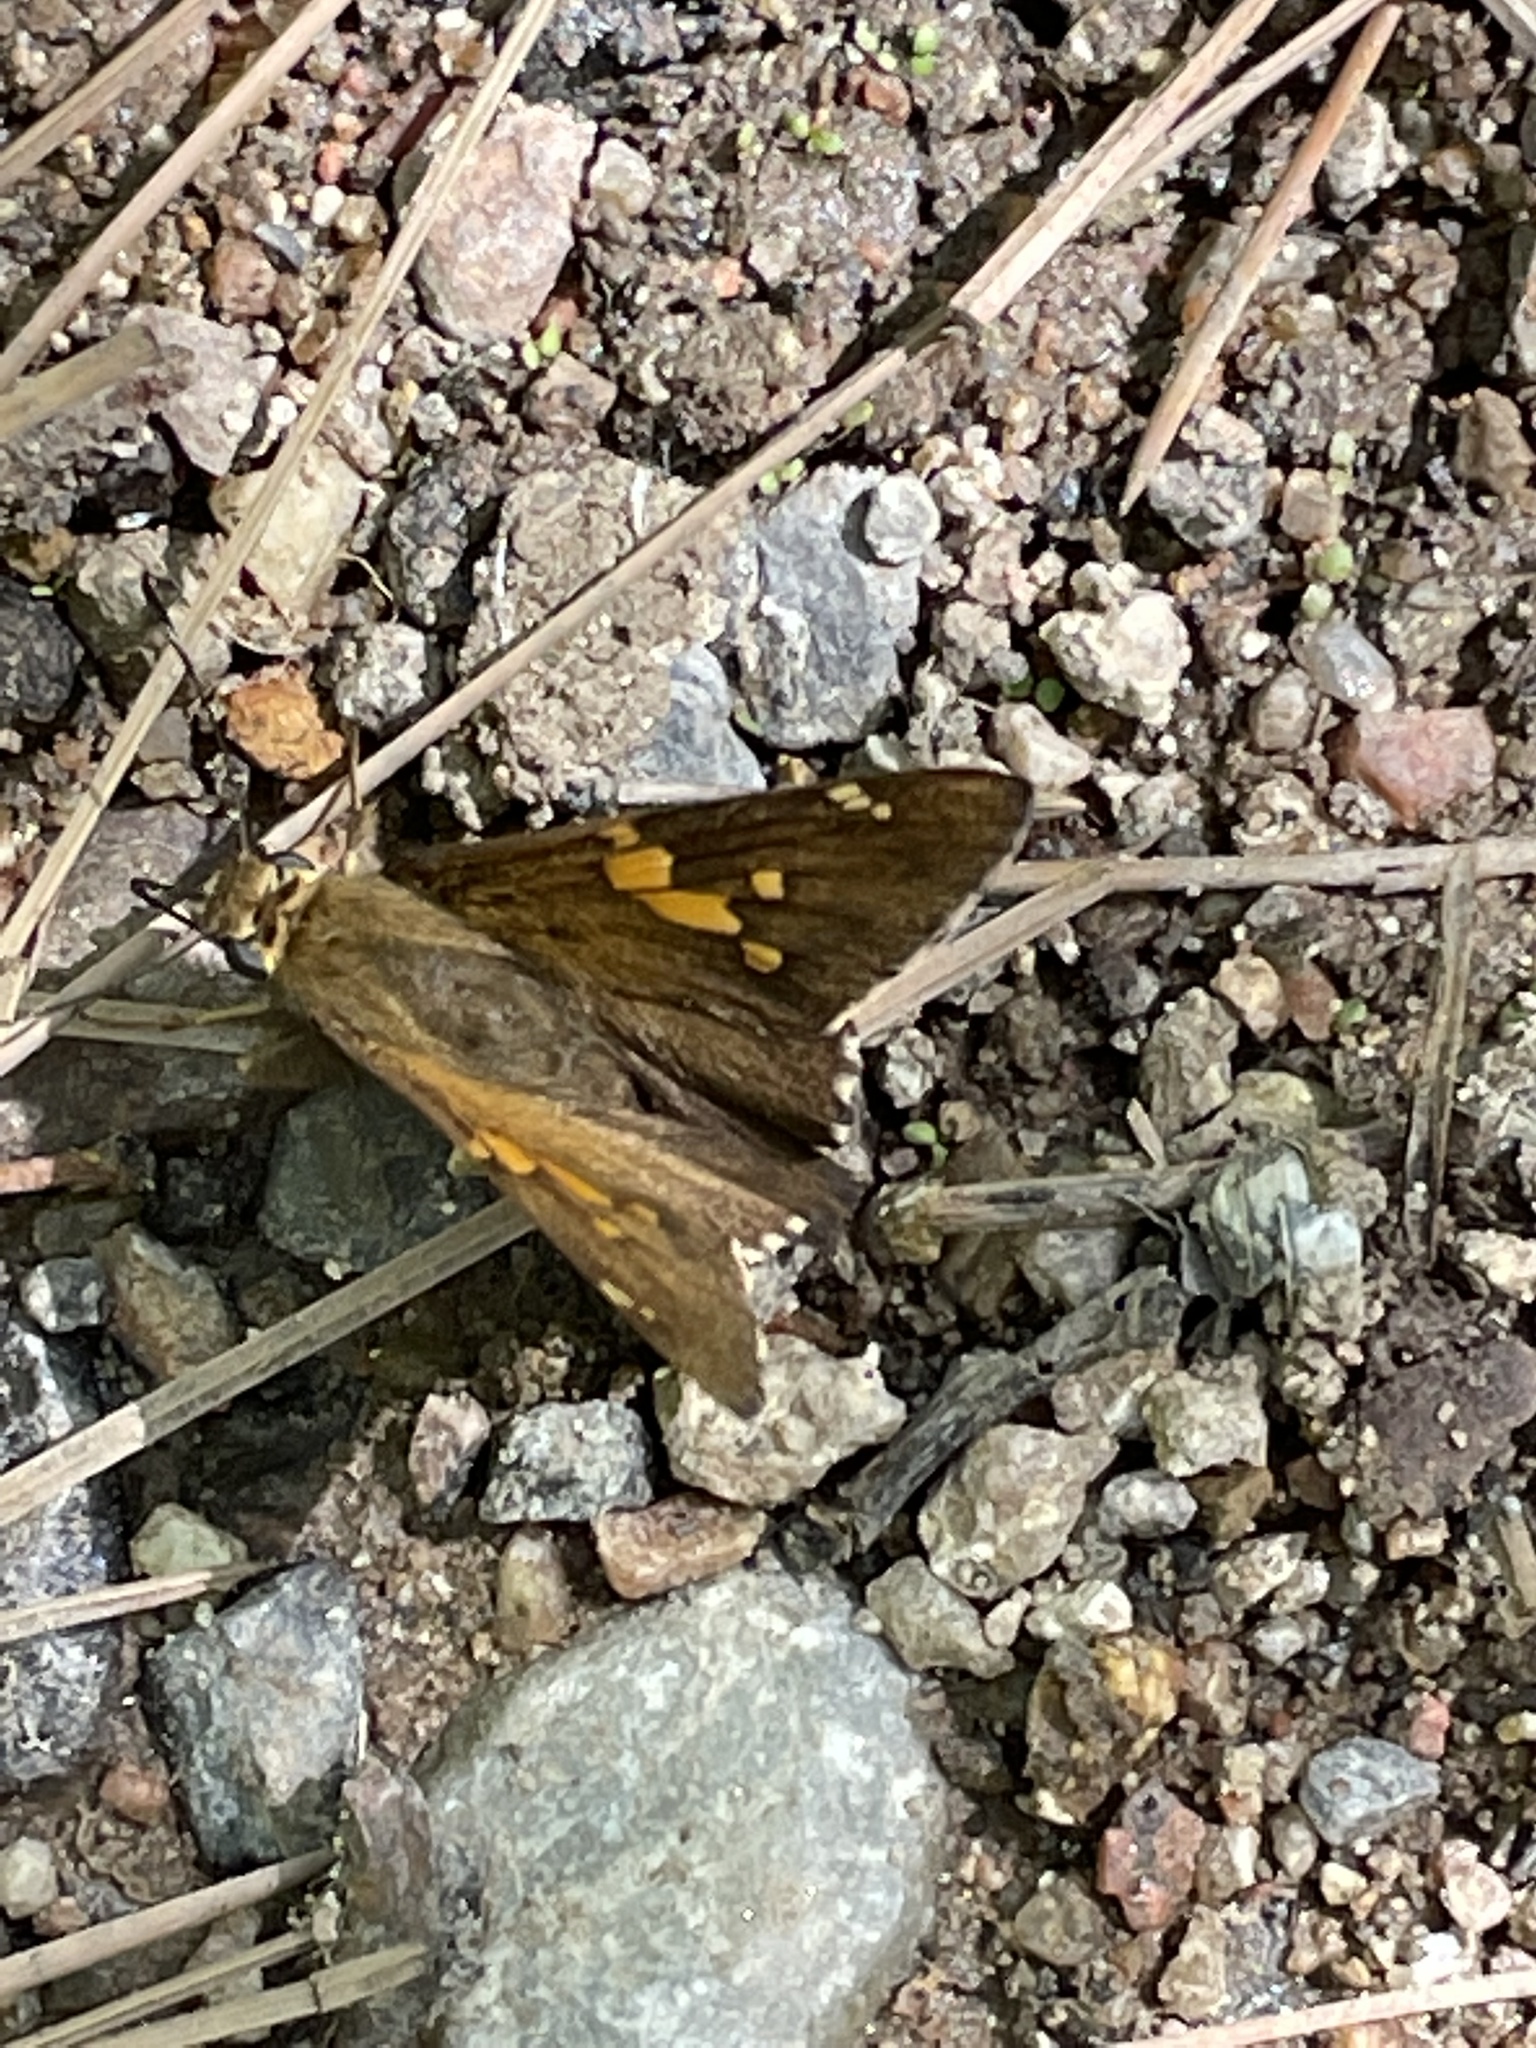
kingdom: Animalia
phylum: Arthropoda
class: Insecta
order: Lepidoptera
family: Hesperiidae
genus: Epargyreus
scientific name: Epargyreus clarus
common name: Silver-spotted skipper
